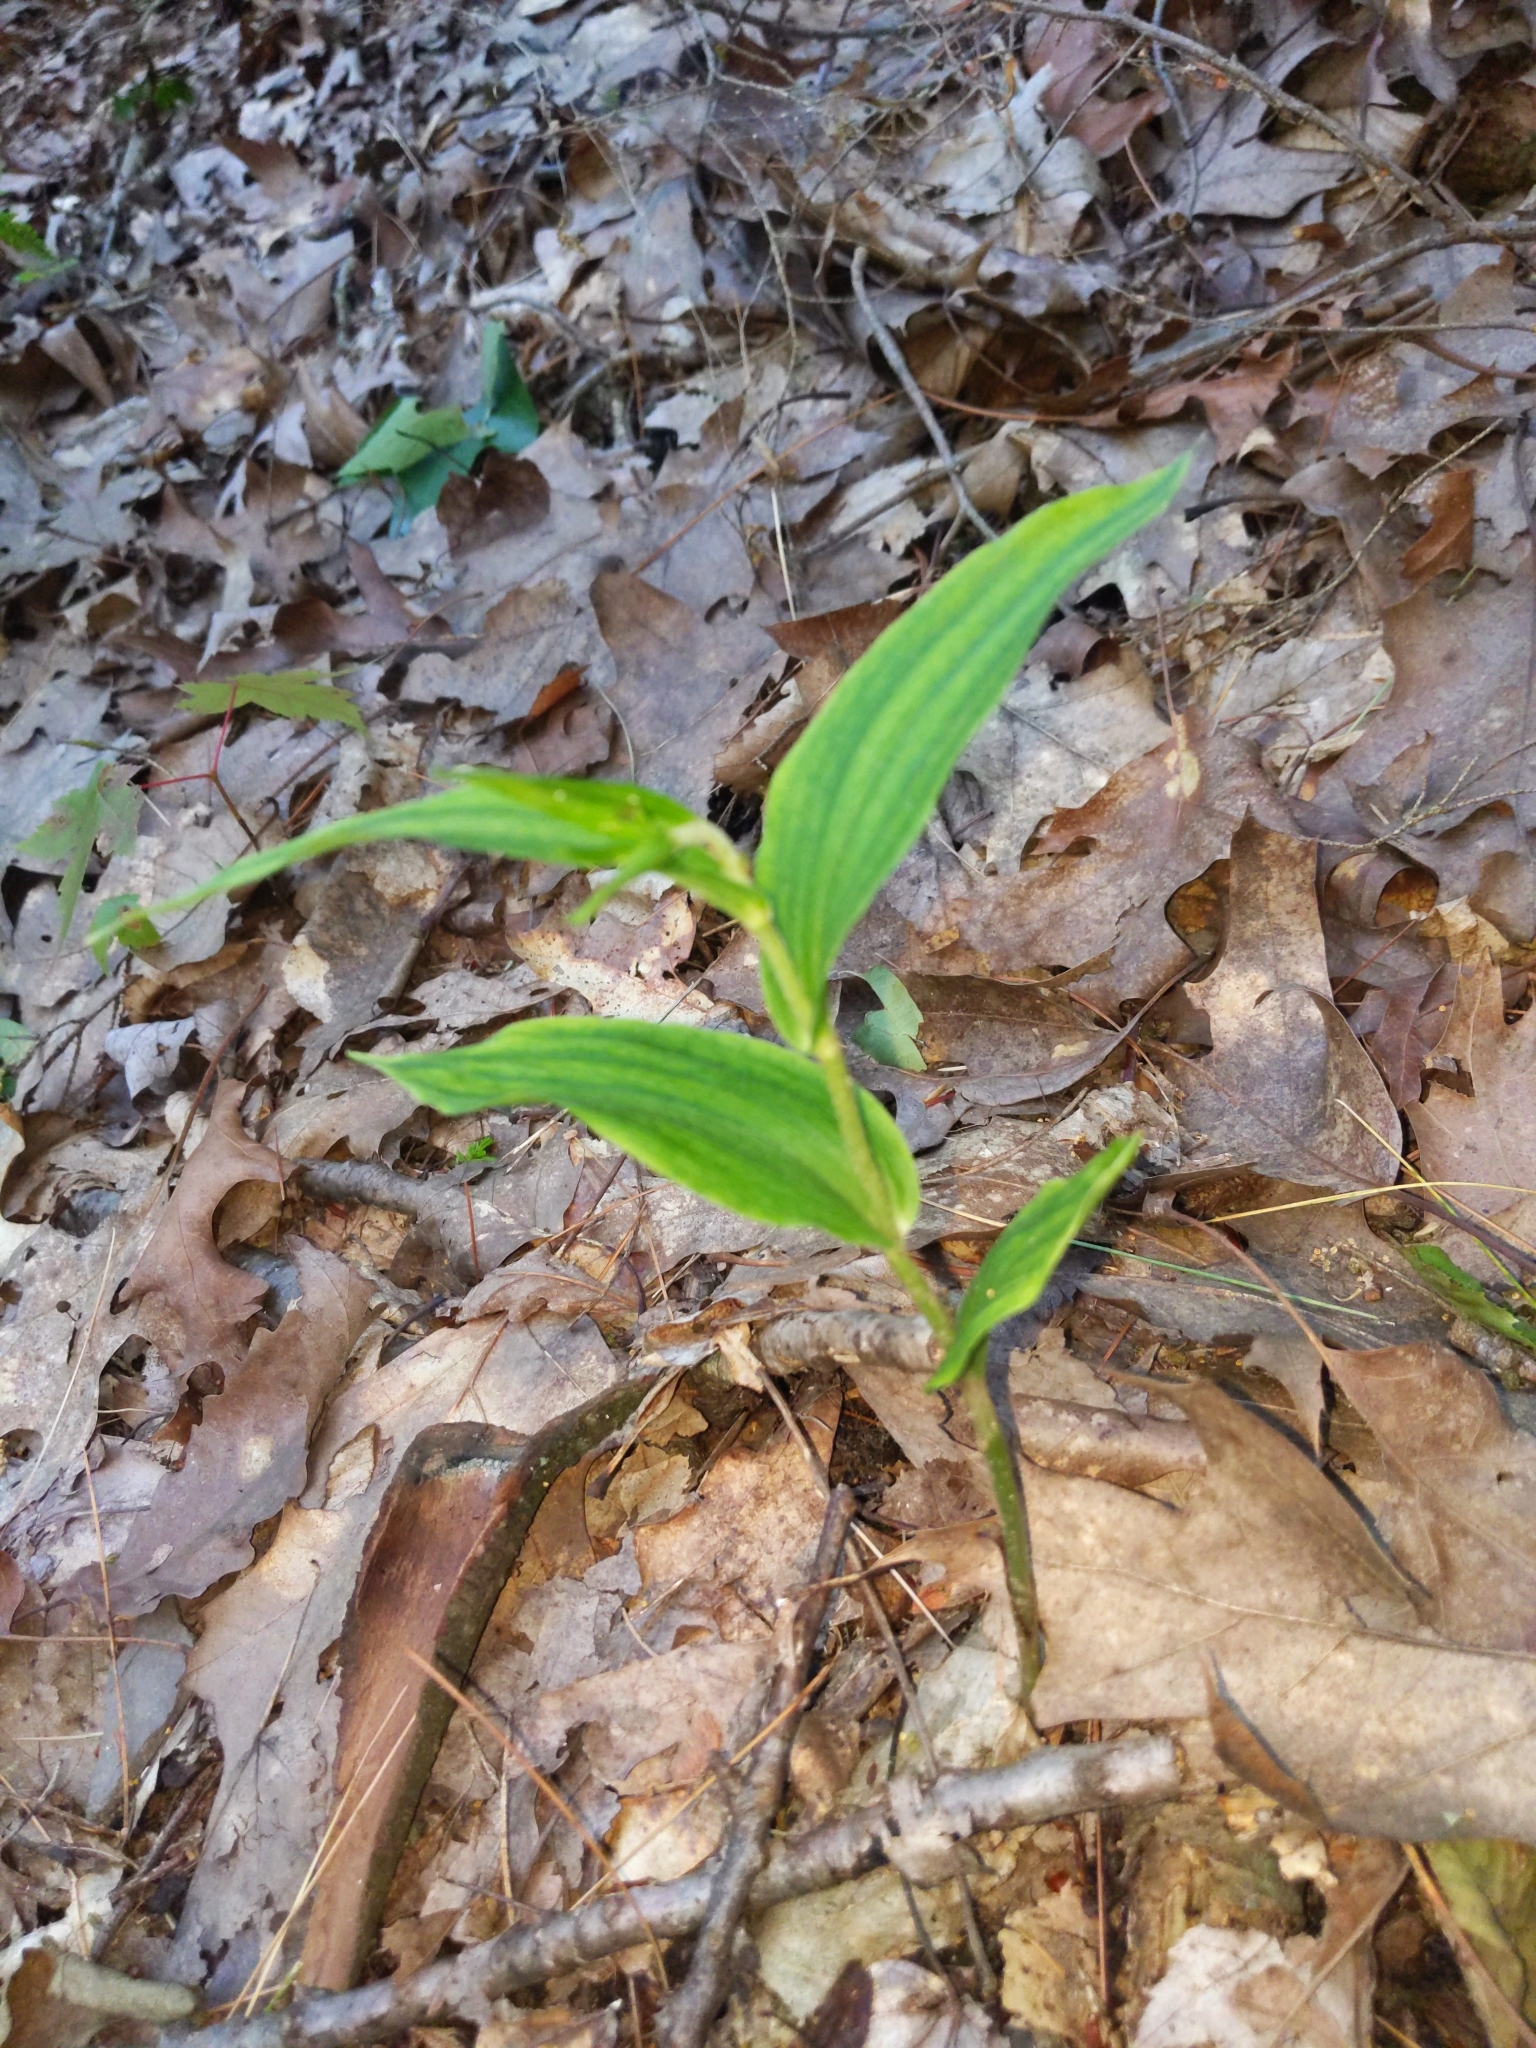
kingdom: Plantae
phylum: Tracheophyta
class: Liliopsida
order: Asparagales
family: Orchidaceae
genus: Epipactis
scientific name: Epipactis helleborine
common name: Broad-leaved helleborine
